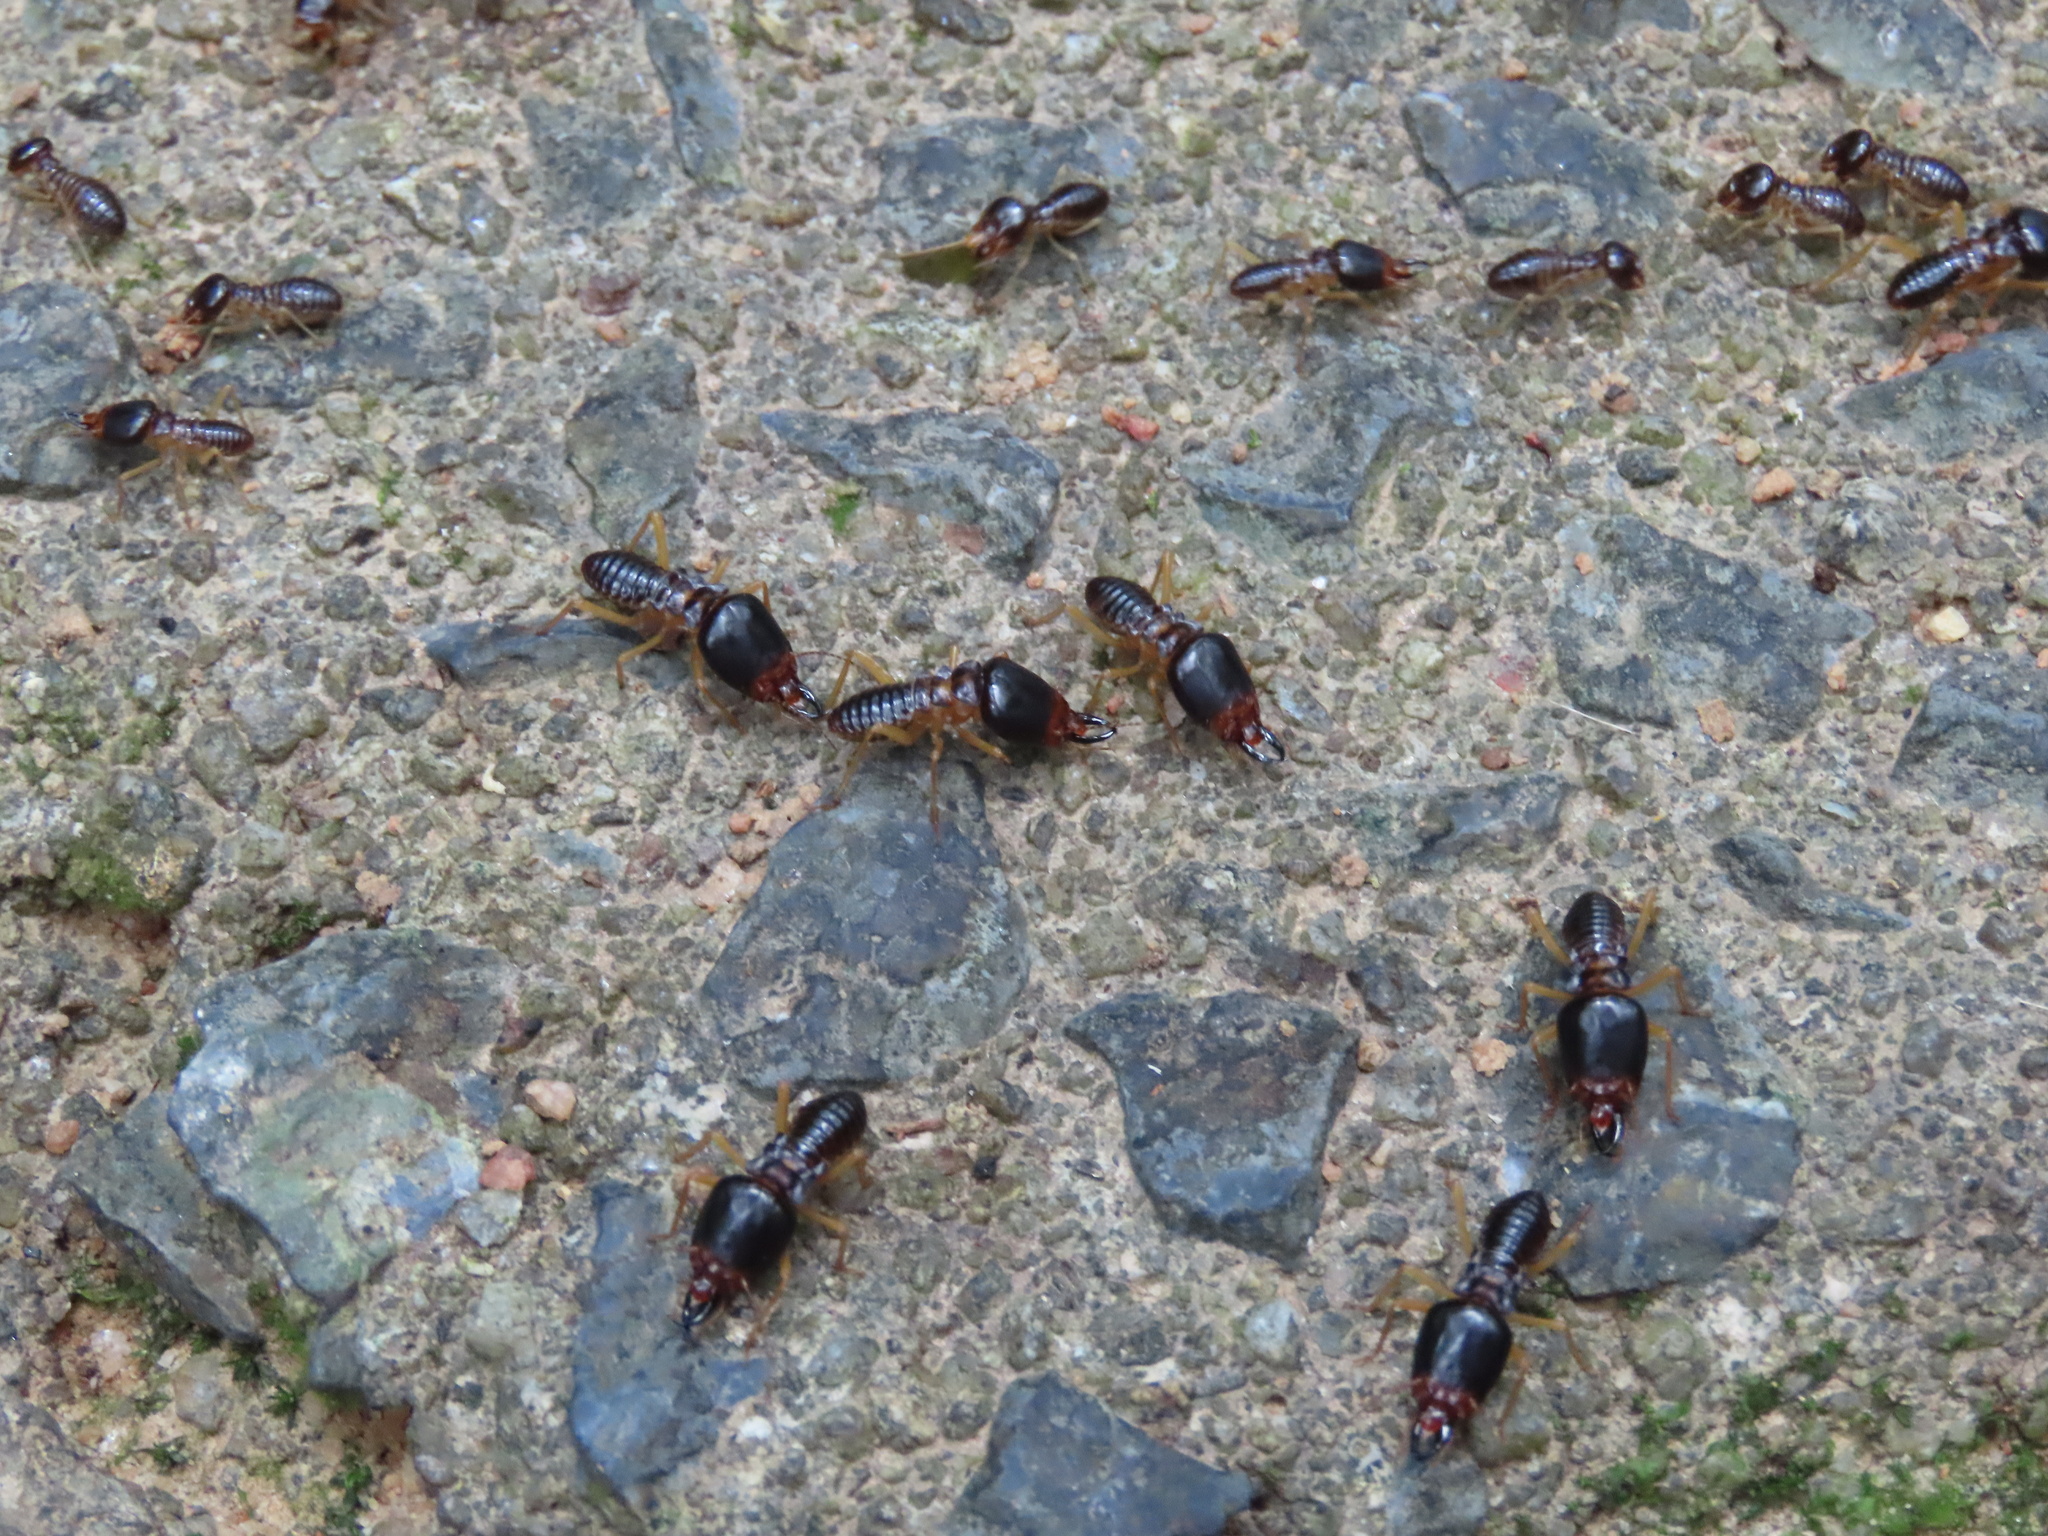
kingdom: Animalia
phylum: Arthropoda
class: Insecta
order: Blattodea
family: Termitidae
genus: Macrotermes
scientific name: Macrotermes carbonarius
